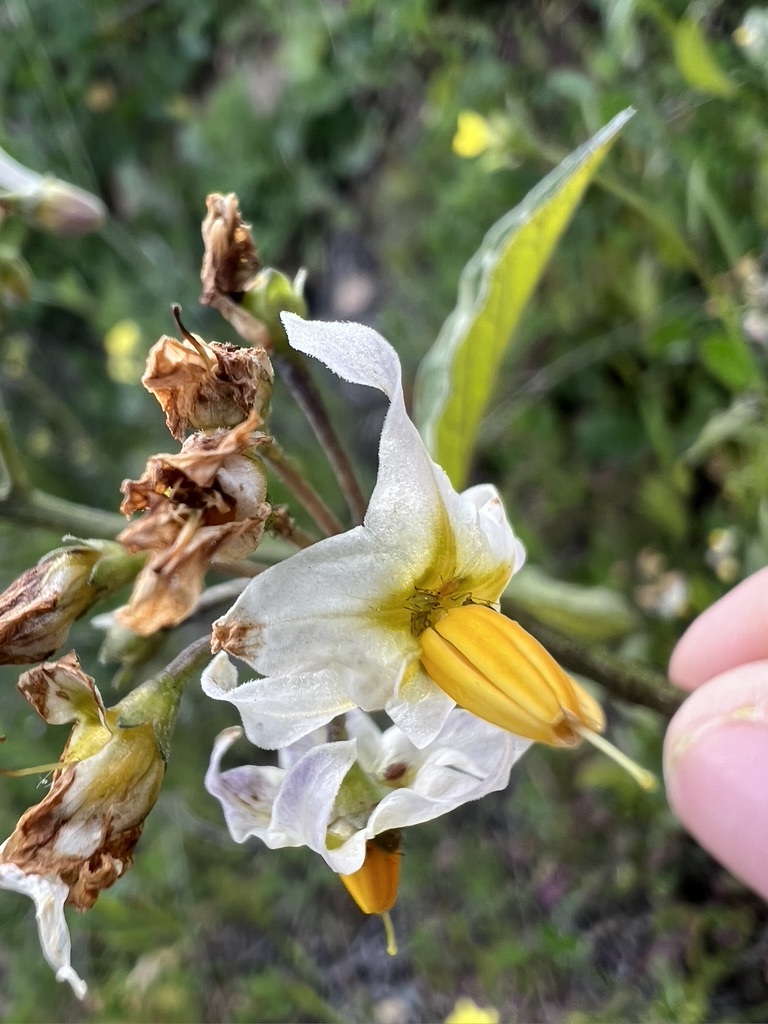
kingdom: Plantae
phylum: Tracheophyta
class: Magnoliopsida
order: Solanales
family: Solanaceae
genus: Solanum
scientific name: Solanum douglasii
